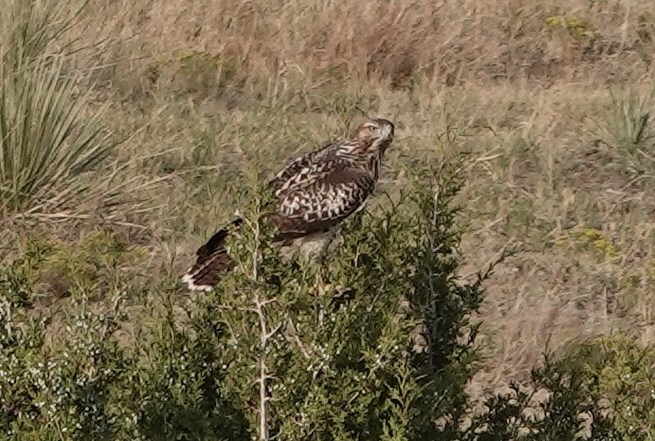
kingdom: Animalia
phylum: Chordata
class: Aves
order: Accipitriformes
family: Accipitridae
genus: Buteo
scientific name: Buteo jamaicensis
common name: Red-tailed hawk
